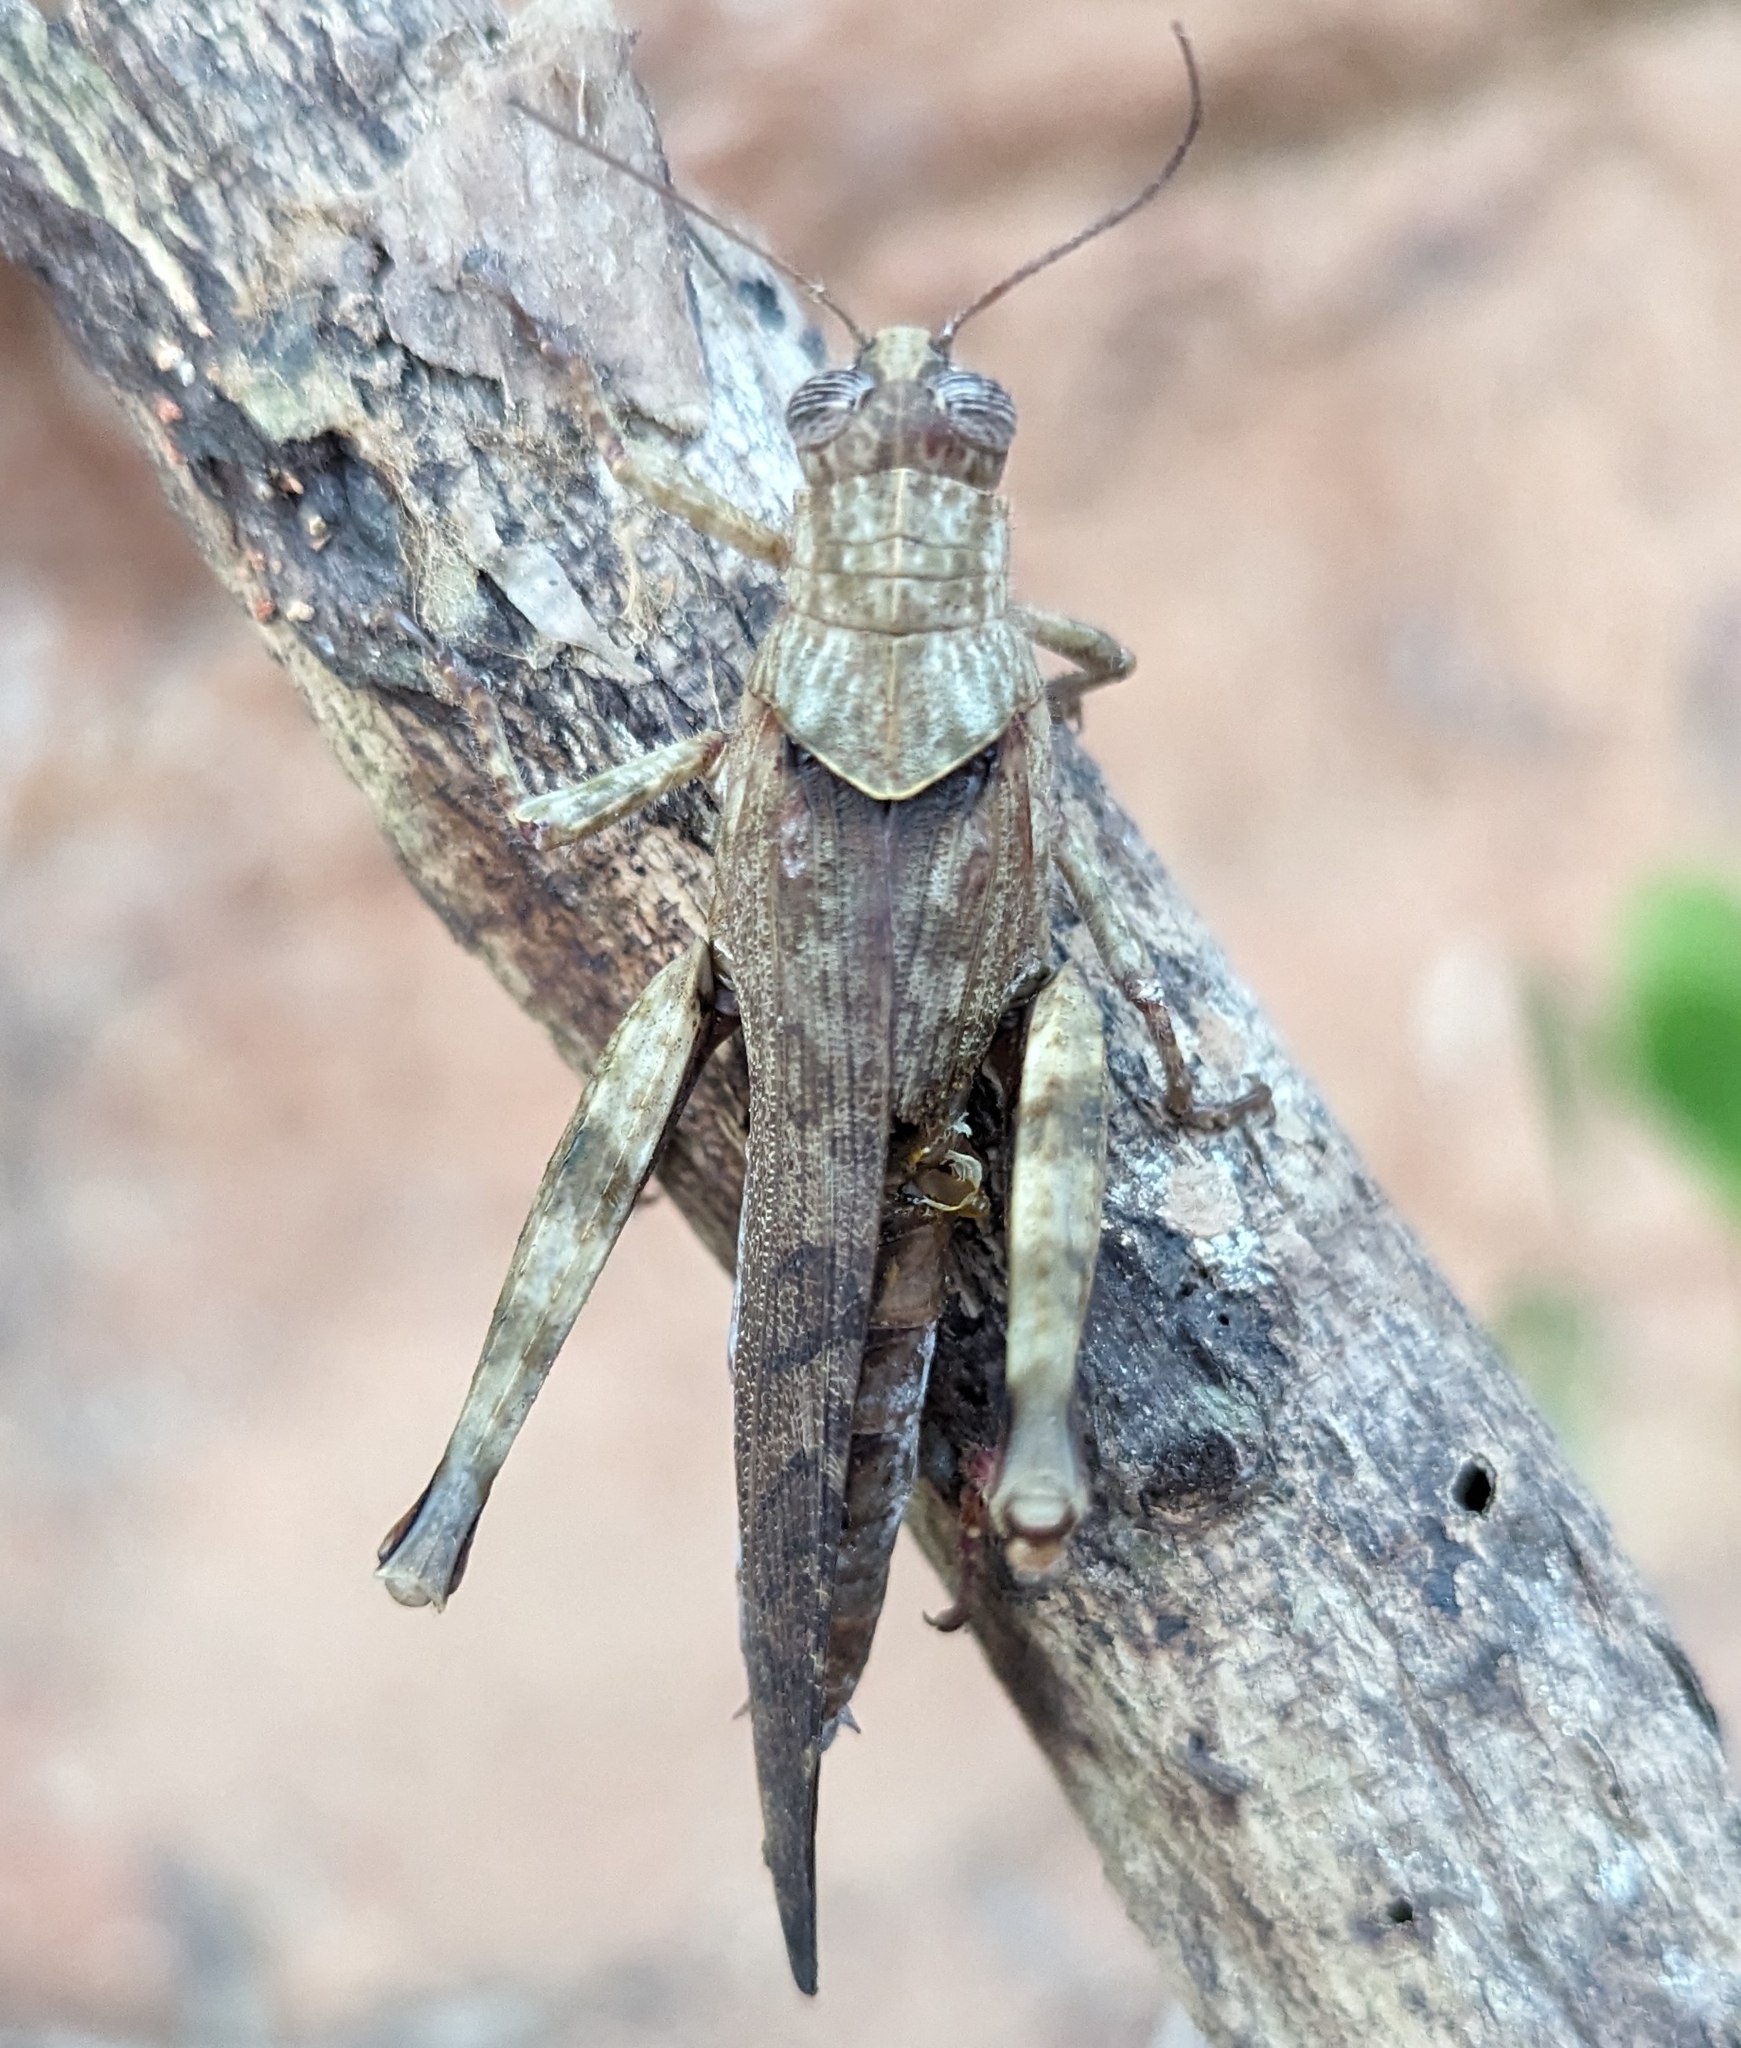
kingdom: Animalia
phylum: Arthropoda
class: Insecta
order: Orthoptera
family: Acrididae
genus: Rhytidacris
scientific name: Rhytidacris tectifera
